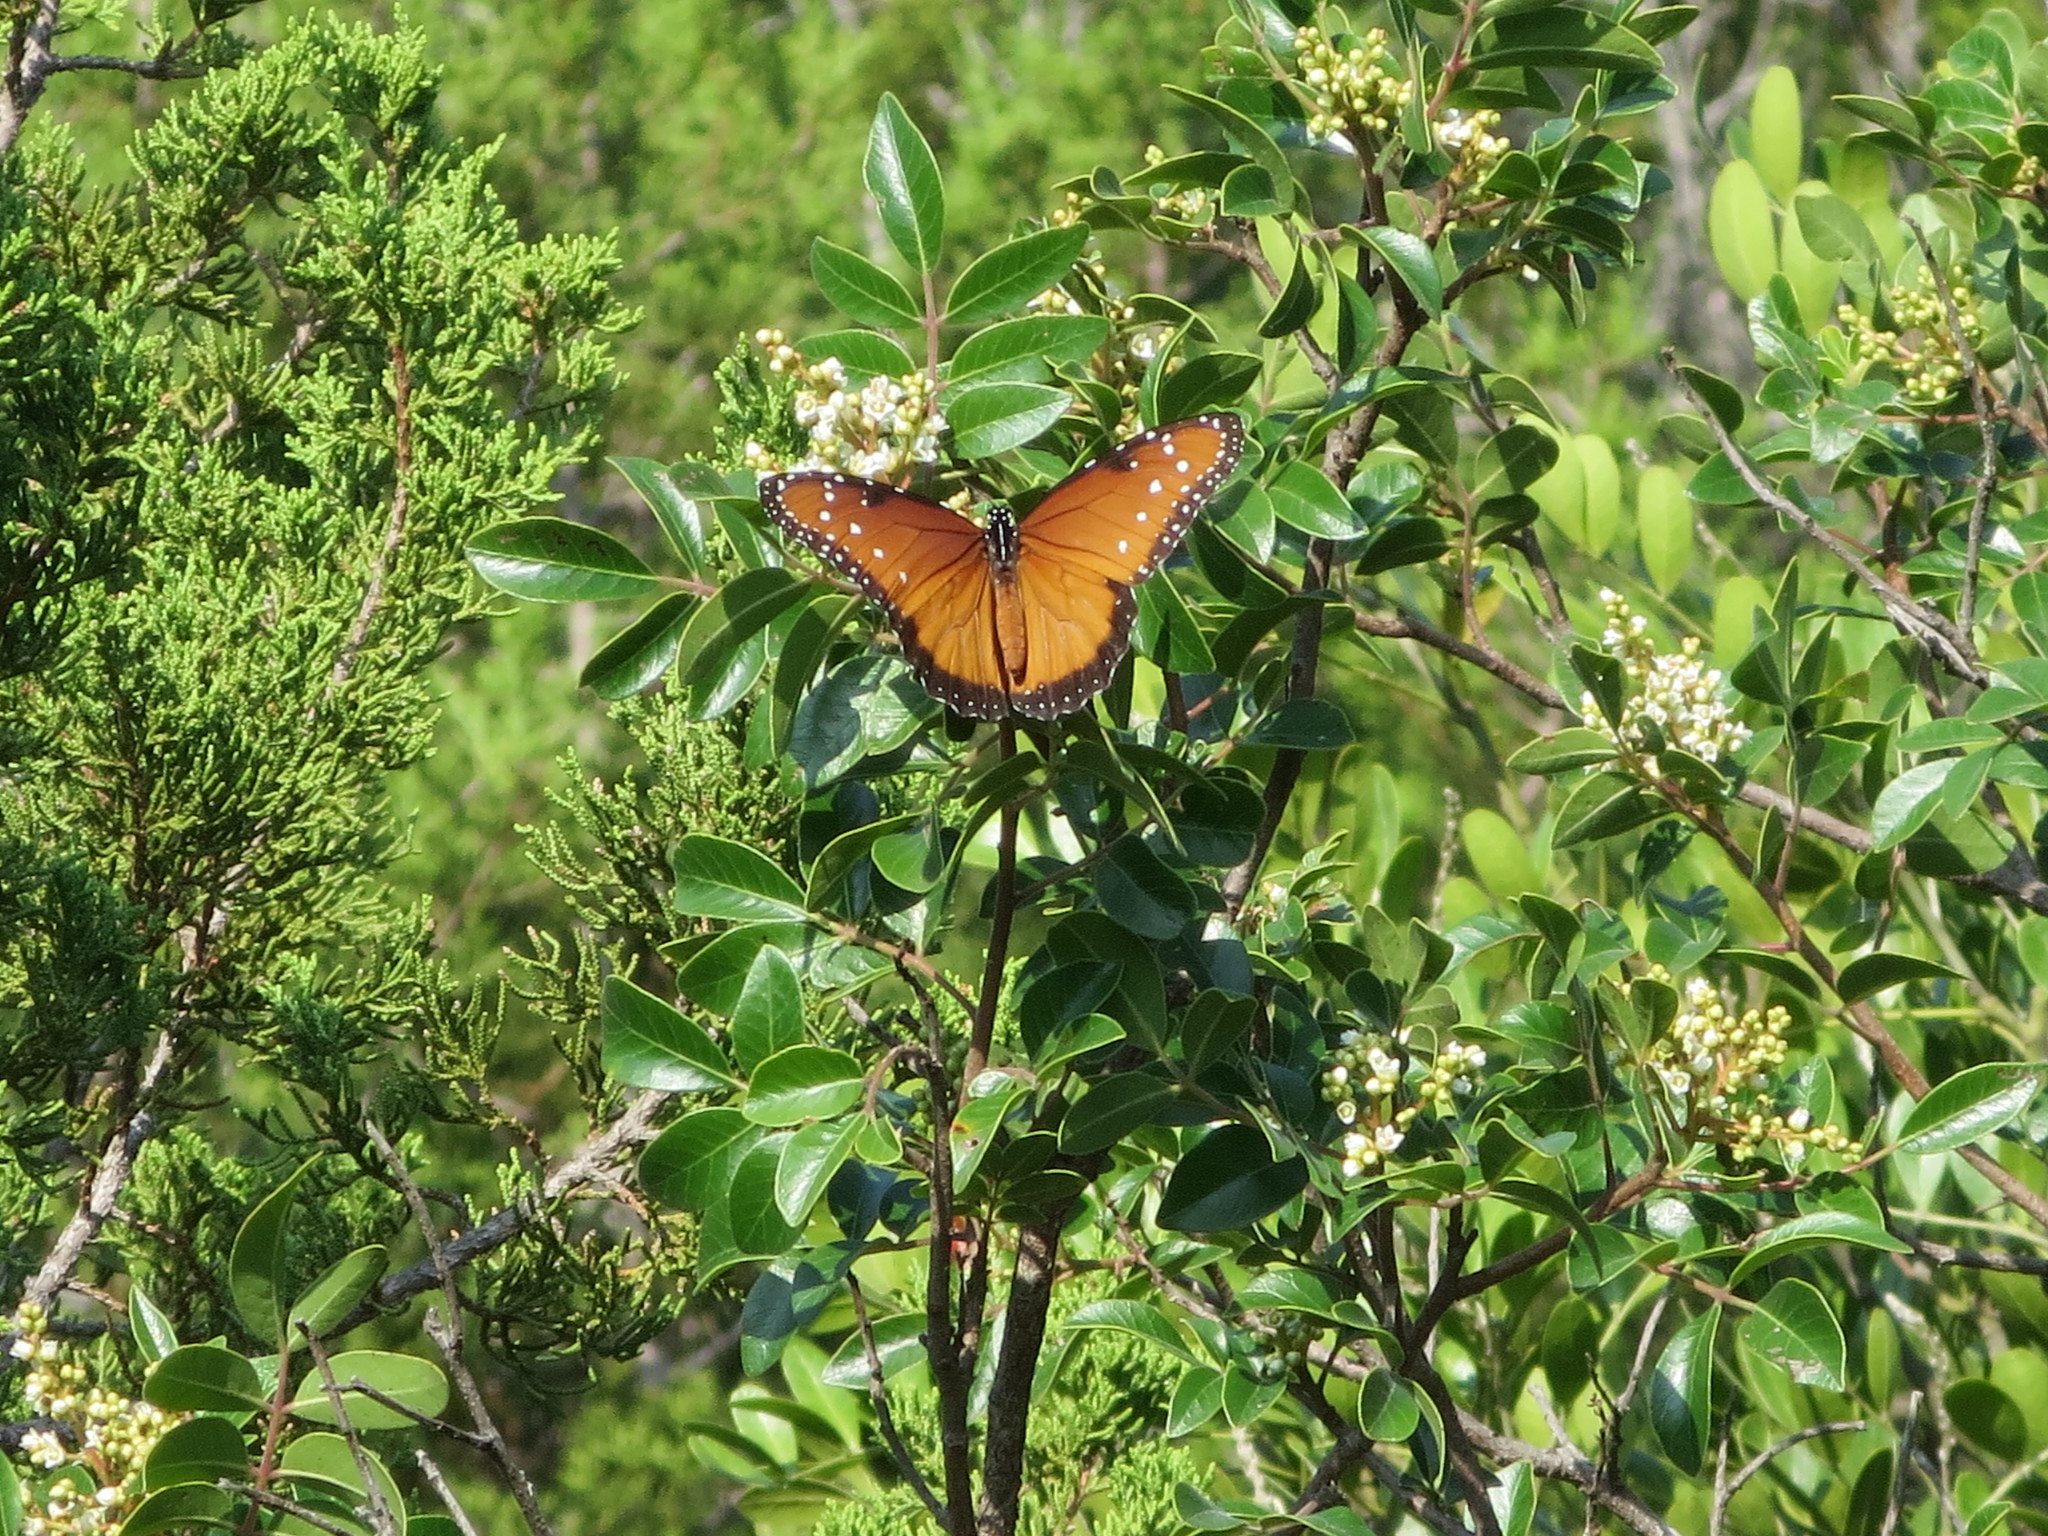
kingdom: Animalia
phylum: Arthropoda
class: Insecta
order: Lepidoptera
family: Nymphalidae
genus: Danaus
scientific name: Danaus gilippus
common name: Queen
